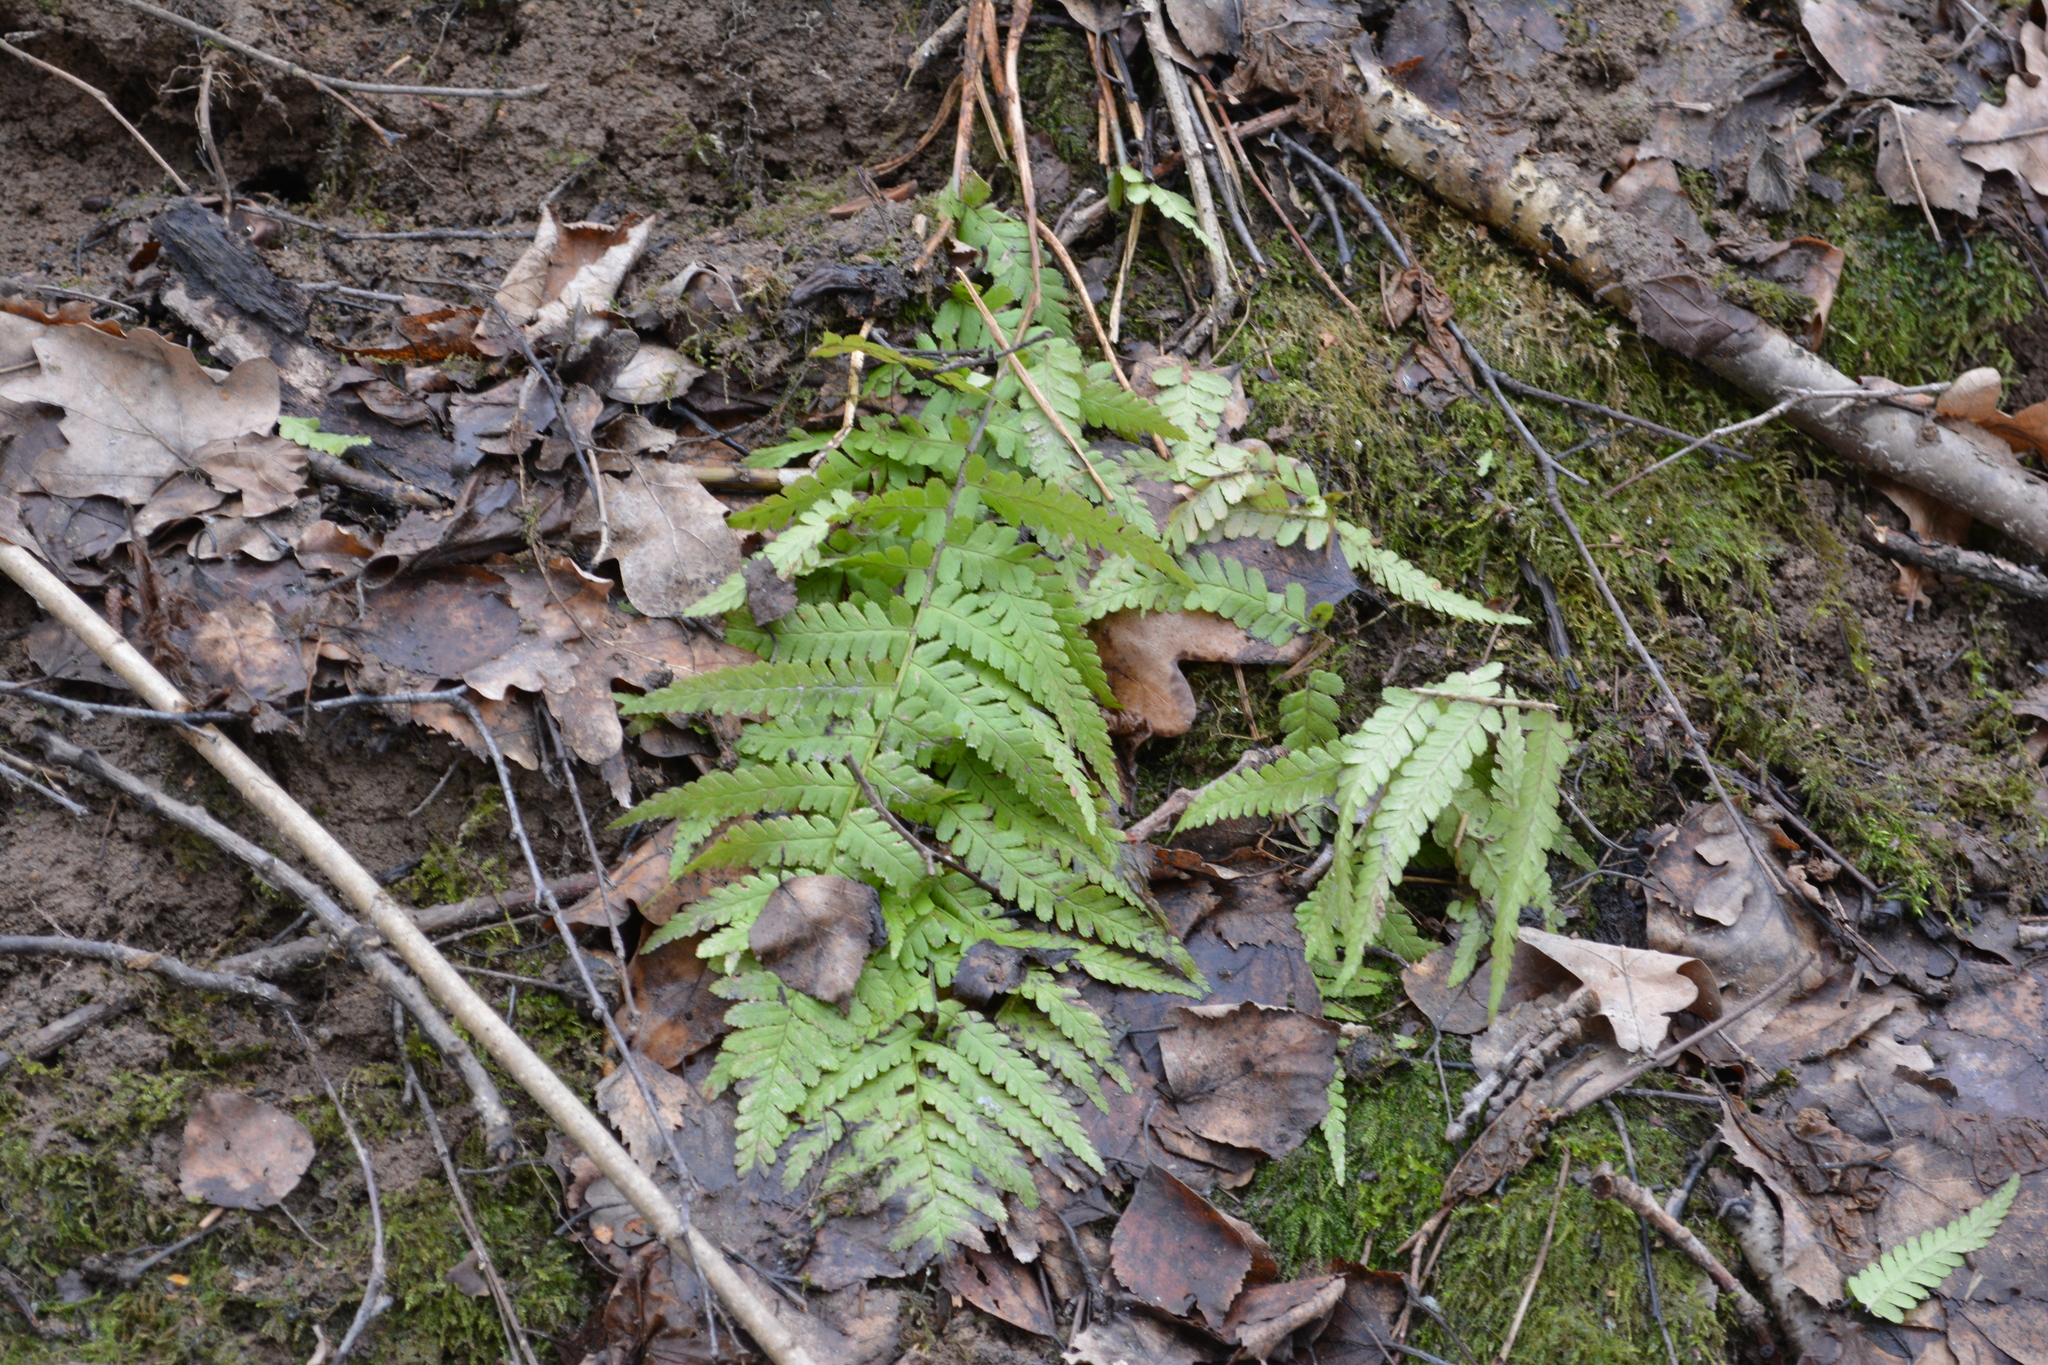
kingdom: Plantae
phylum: Tracheophyta
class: Polypodiopsida
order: Polypodiales
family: Dryopteridaceae
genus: Dryopteris
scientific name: Dryopteris filix-mas
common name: Male fern
